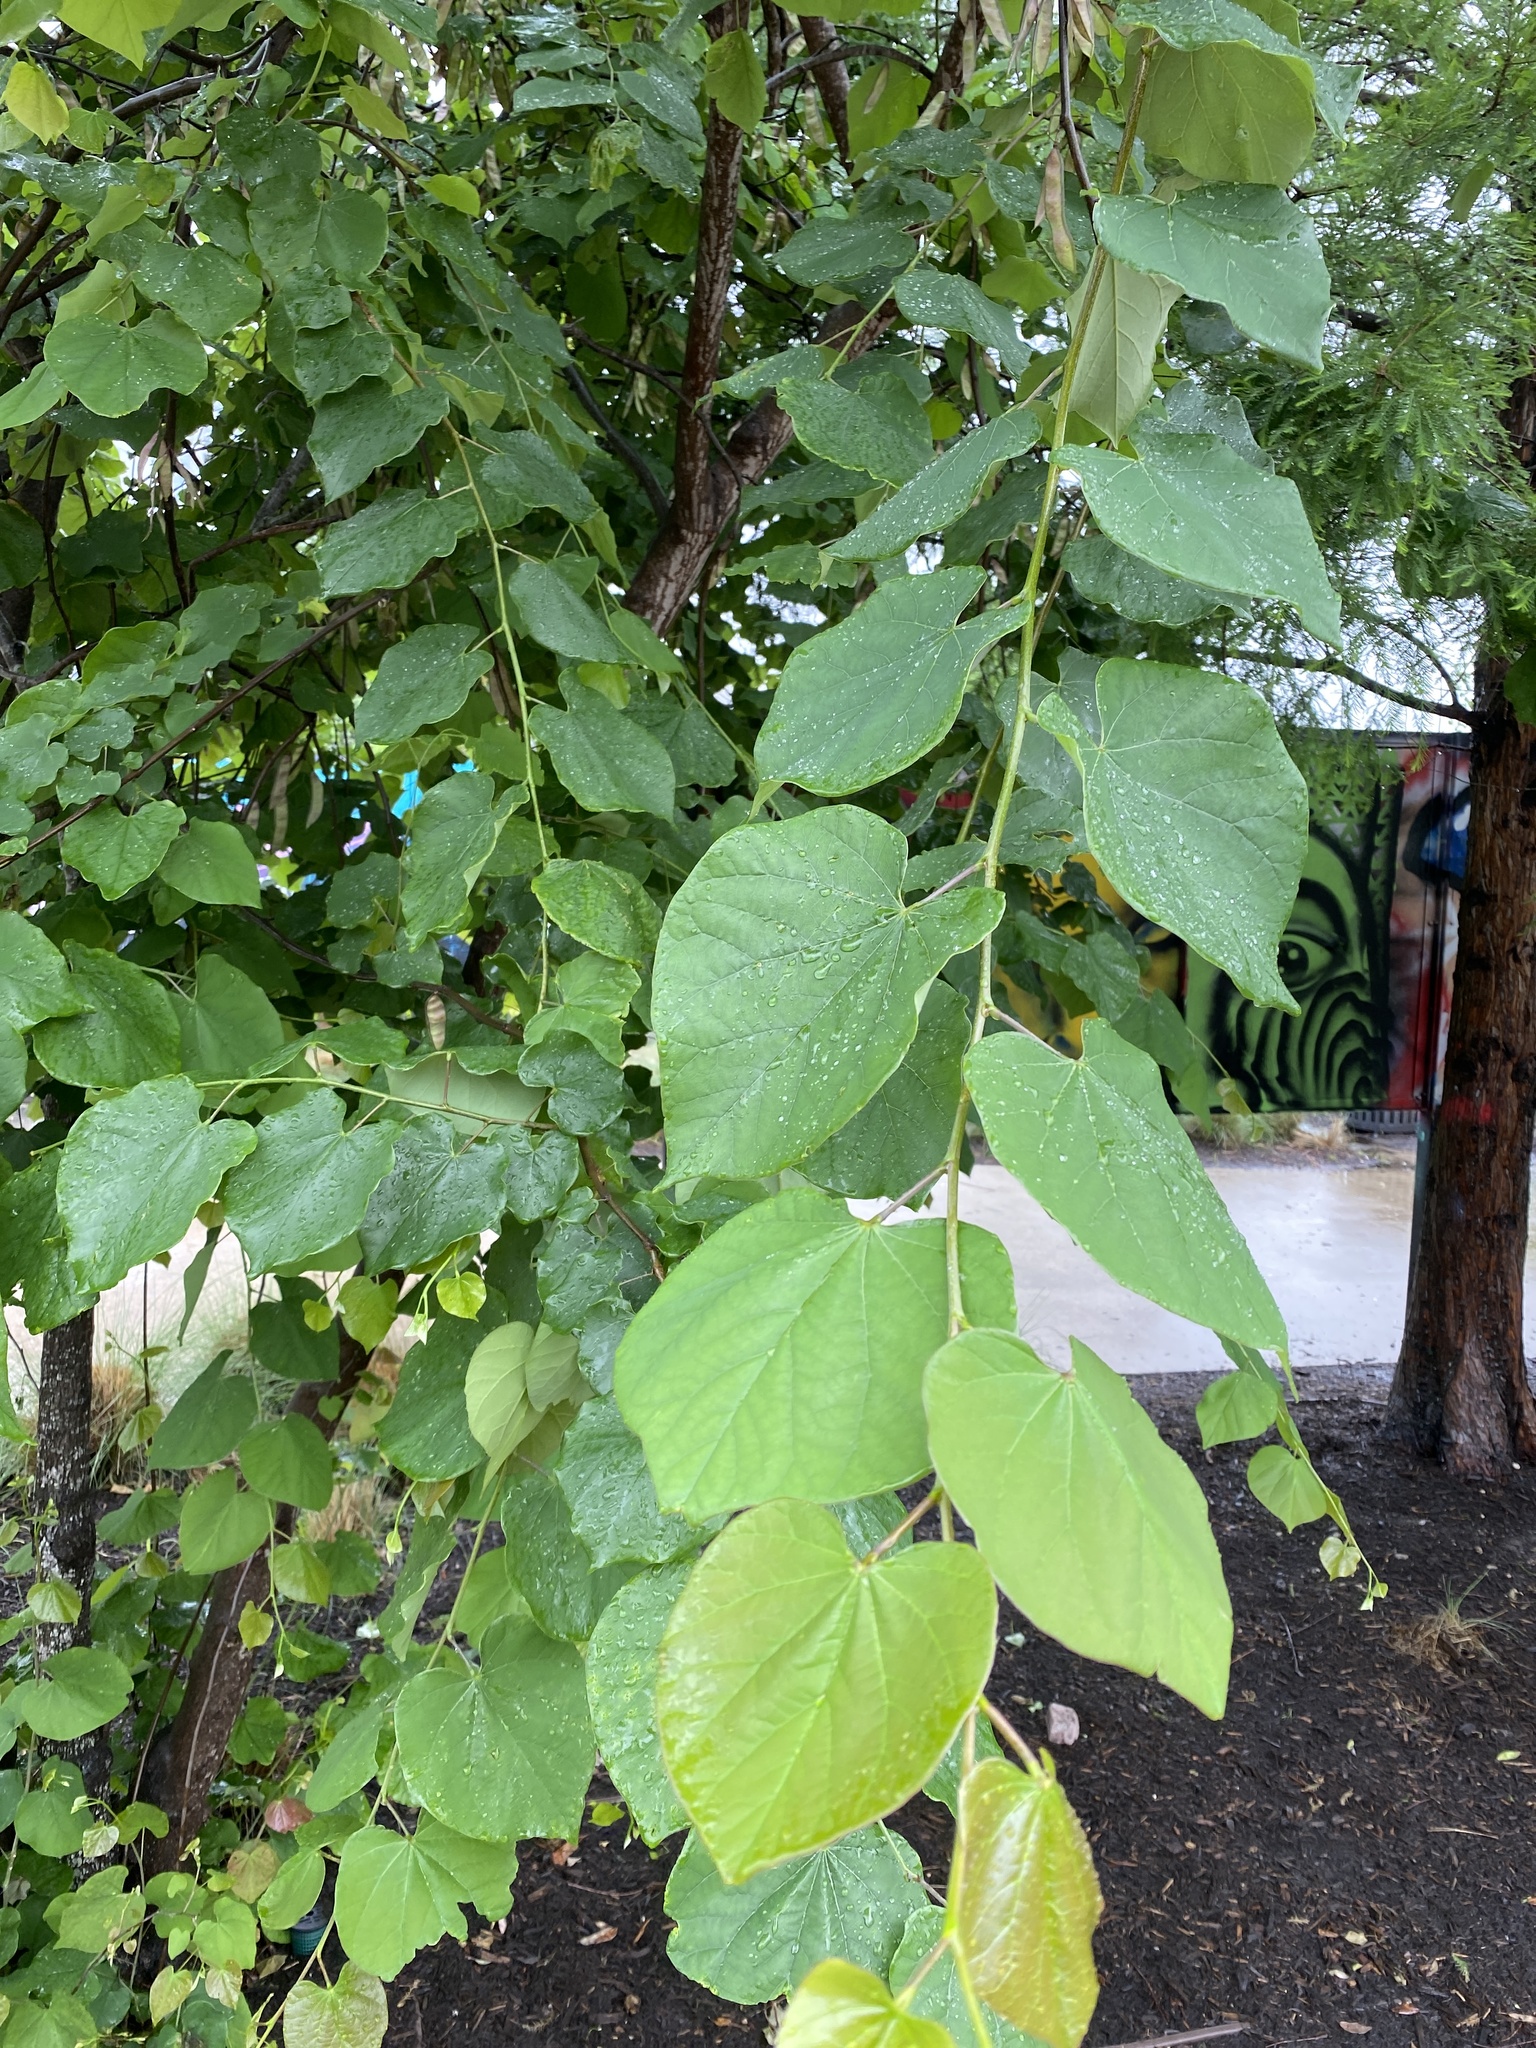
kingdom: Plantae
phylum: Tracheophyta
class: Magnoliopsida
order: Fabales
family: Fabaceae
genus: Cercis
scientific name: Cercis canadensis
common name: Eastern redbud
